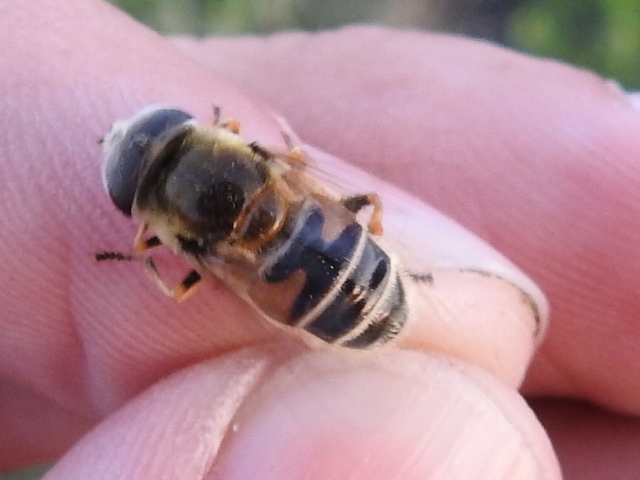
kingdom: Animalia
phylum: Arthropoda
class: Insecta
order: Diptera
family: Syrphidae
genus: Eristalis
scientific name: Eristalis stipator
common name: Yellow-shouldered drone fly
